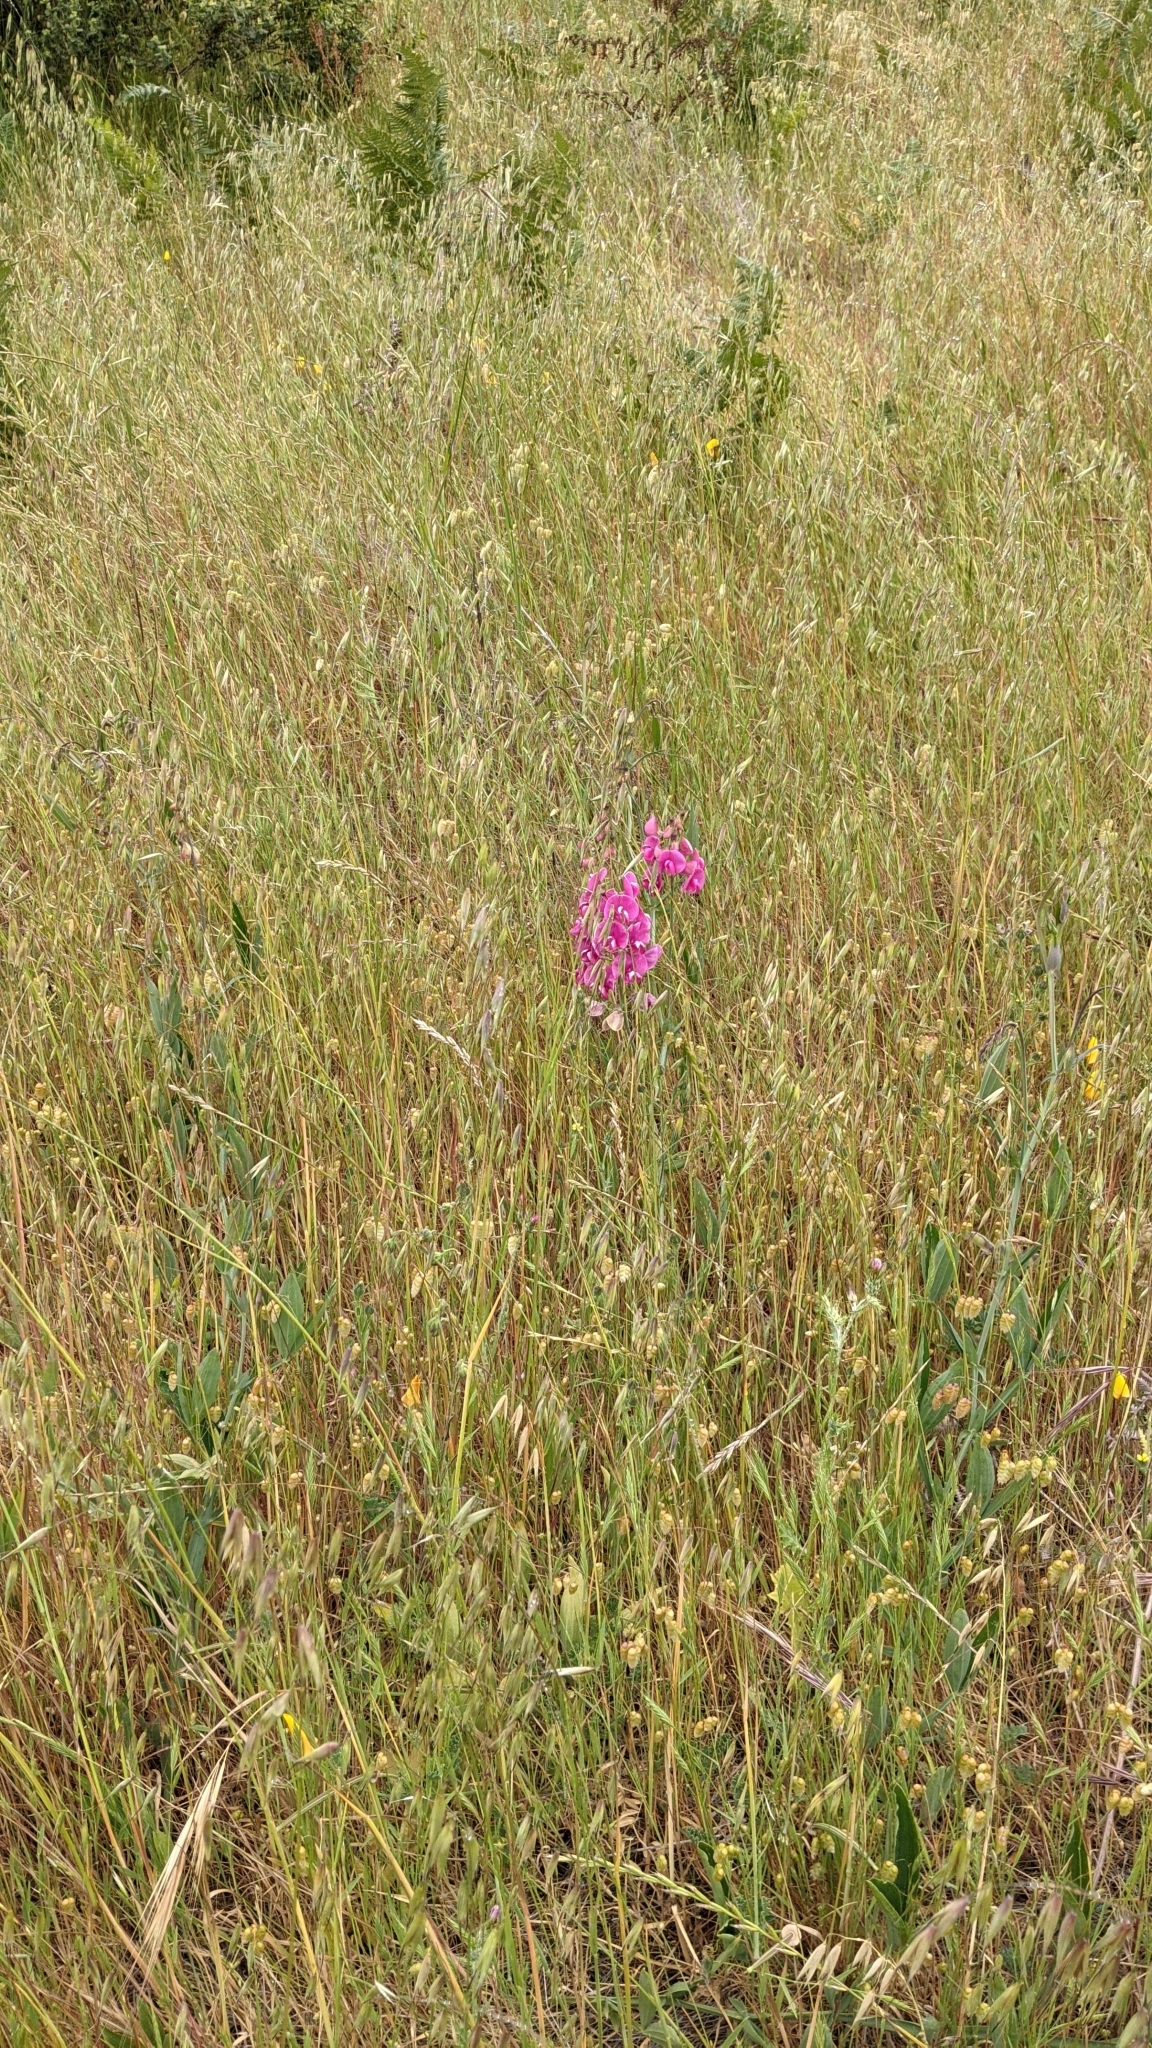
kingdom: Plantae
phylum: Tracheophyta
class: Magnoliopsida
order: Fabales
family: Fabaceae
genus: Lathyrus
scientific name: Lathyrus latifolius
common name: Perennial pea
